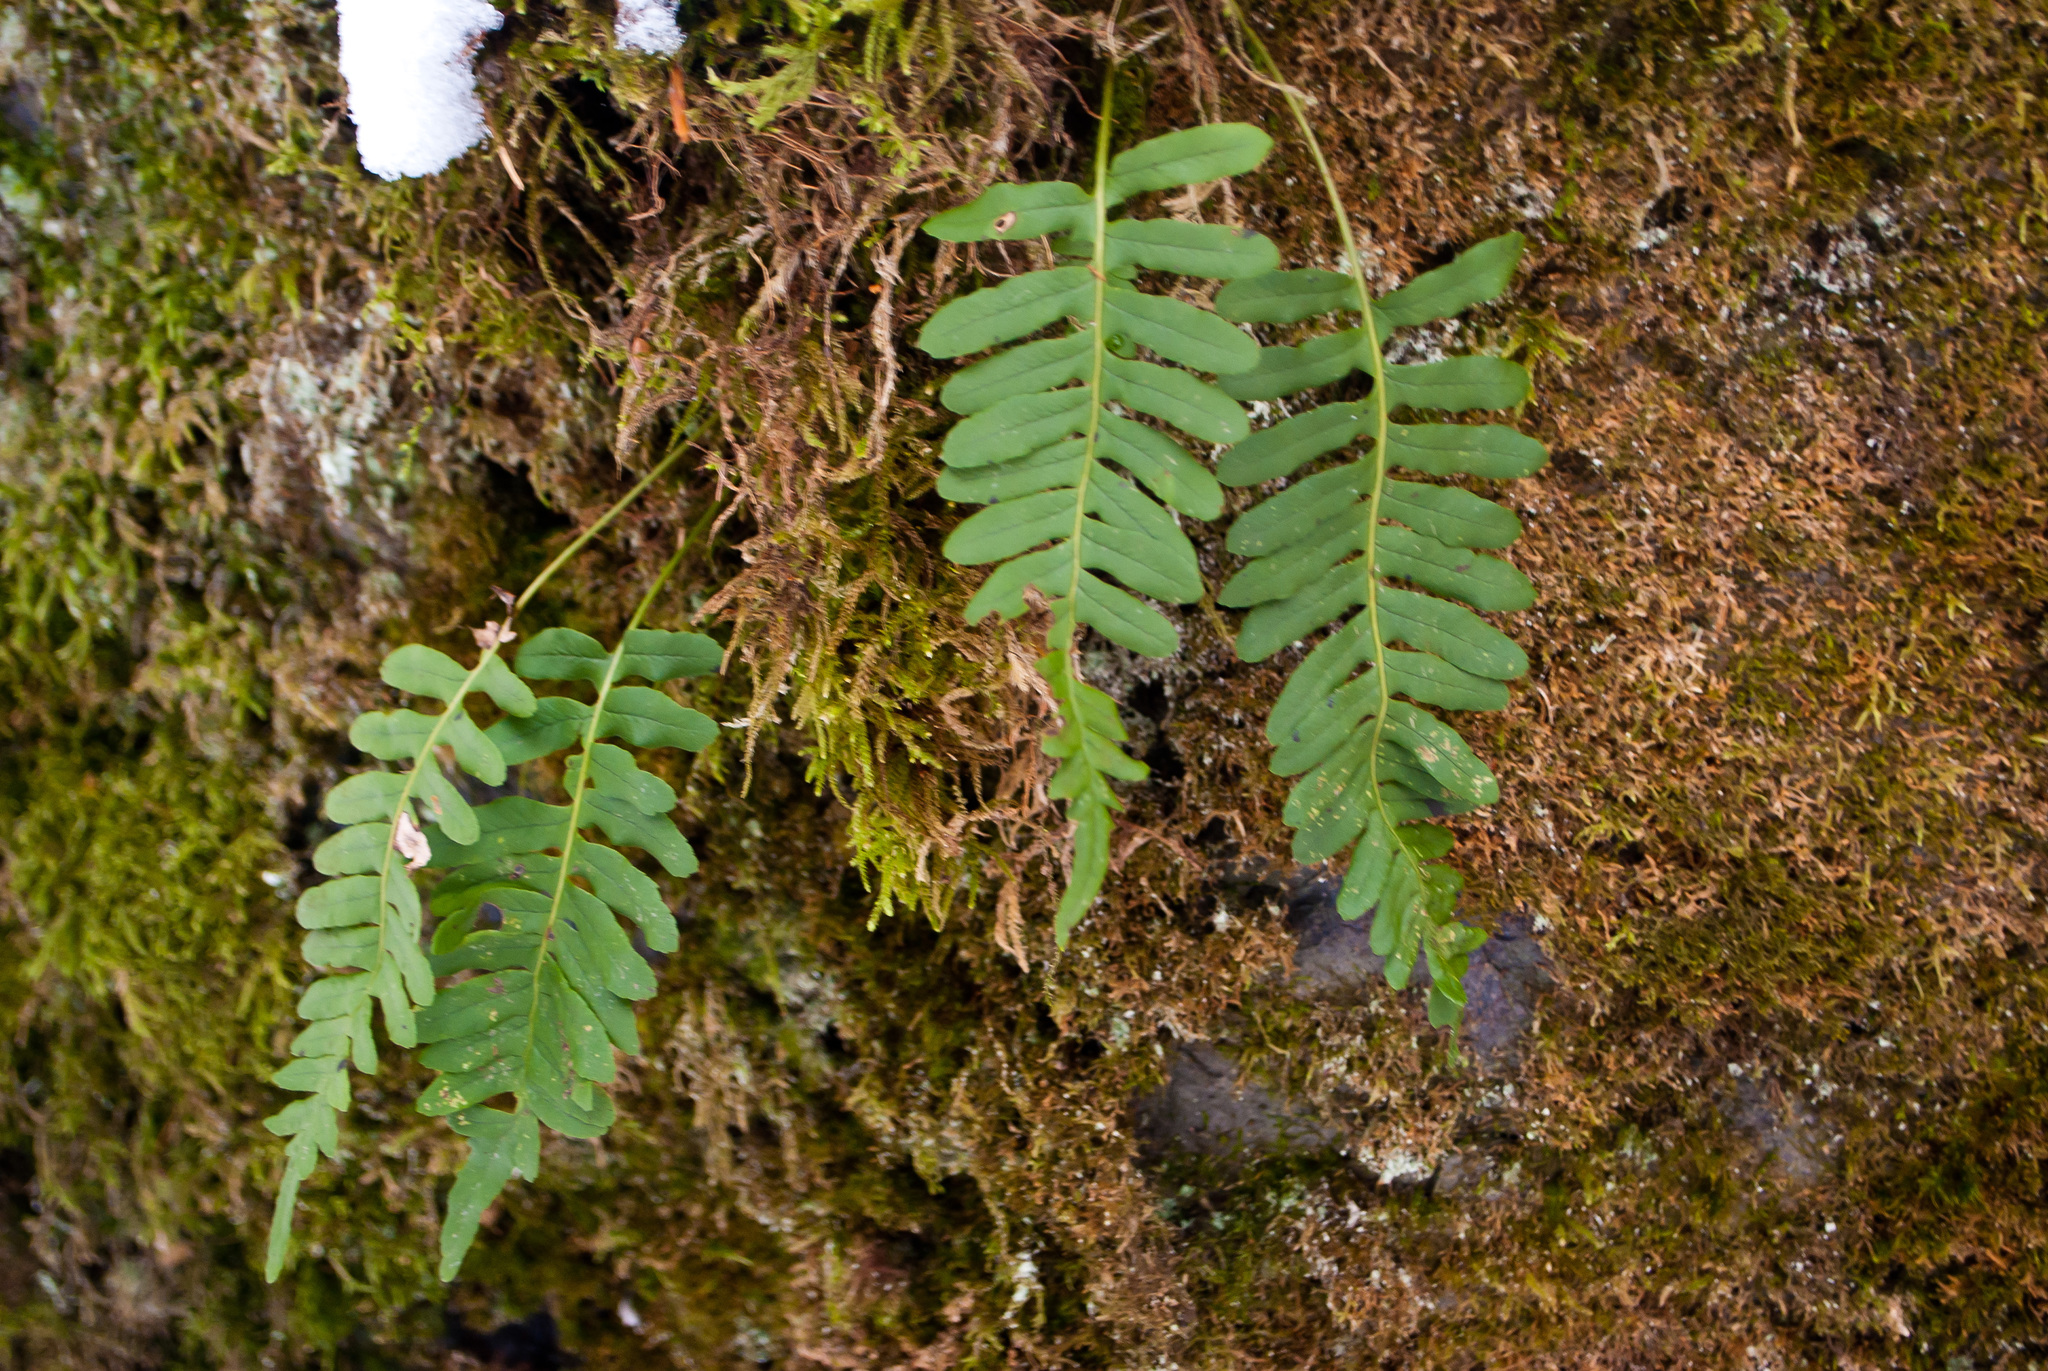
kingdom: Plantae
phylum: Tracheophyta
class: Polypodiopsida
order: Polypodiales
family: Polypodiaceae
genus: Polypodium
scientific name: Polypodium vulgare
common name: Common polypody
